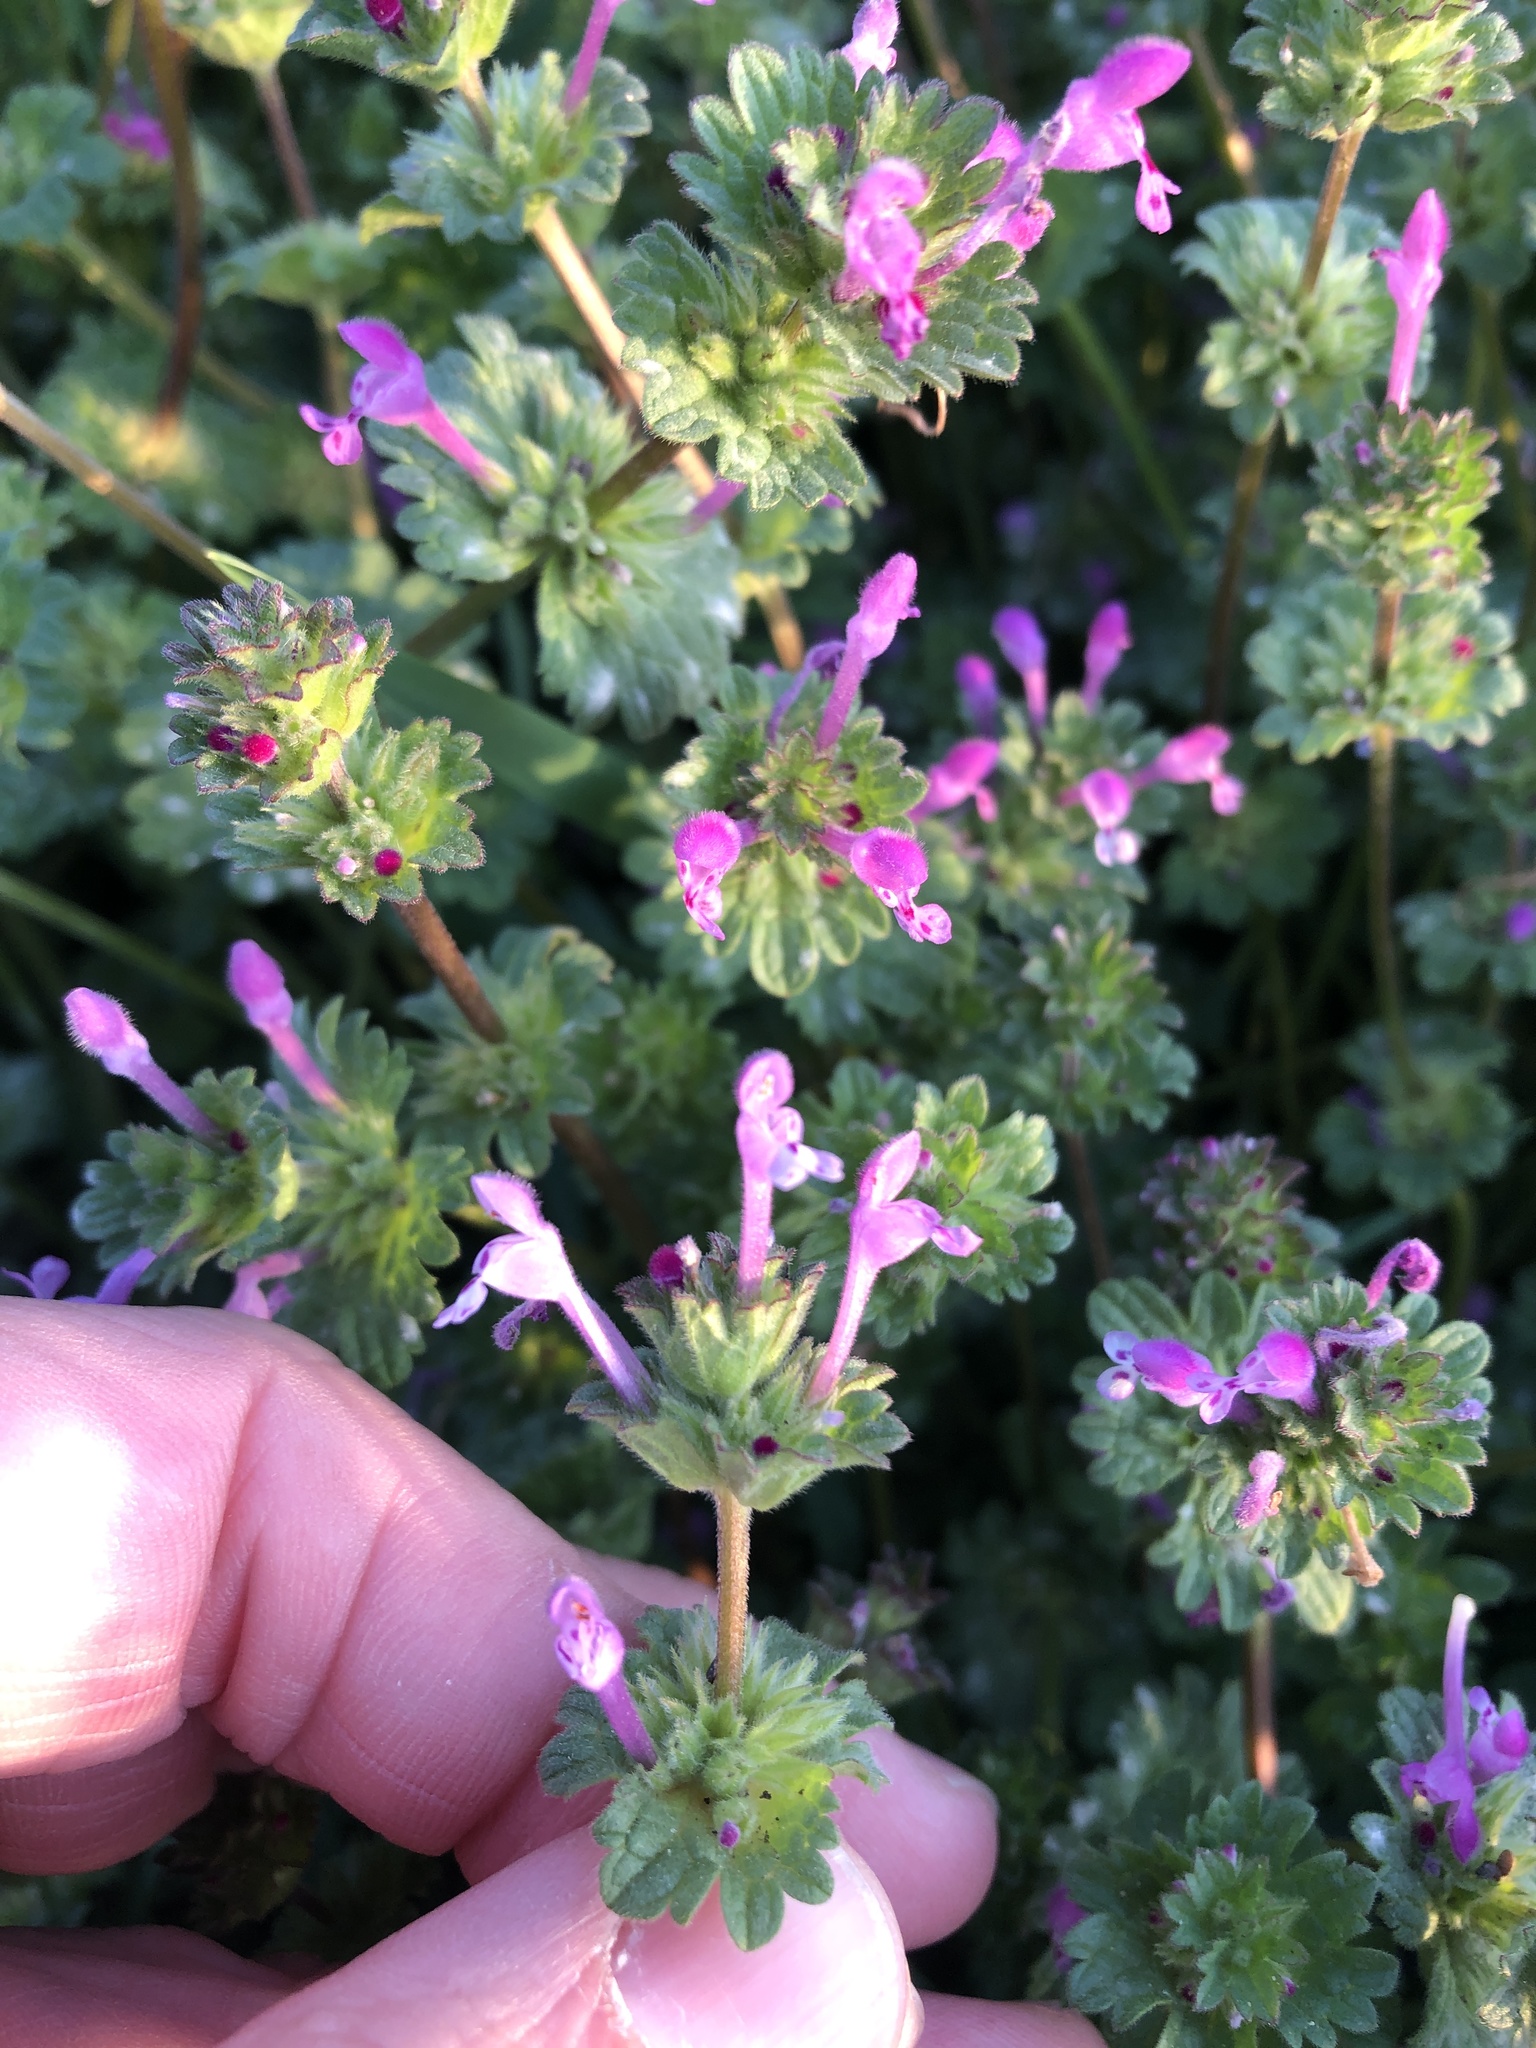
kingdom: Plantae
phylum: Tracheophyta
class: Magnoliopsida
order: Lamiales
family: Lamiaceae
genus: Lamium
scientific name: Lamium amplexicaule
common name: Henbit dead-nettle
